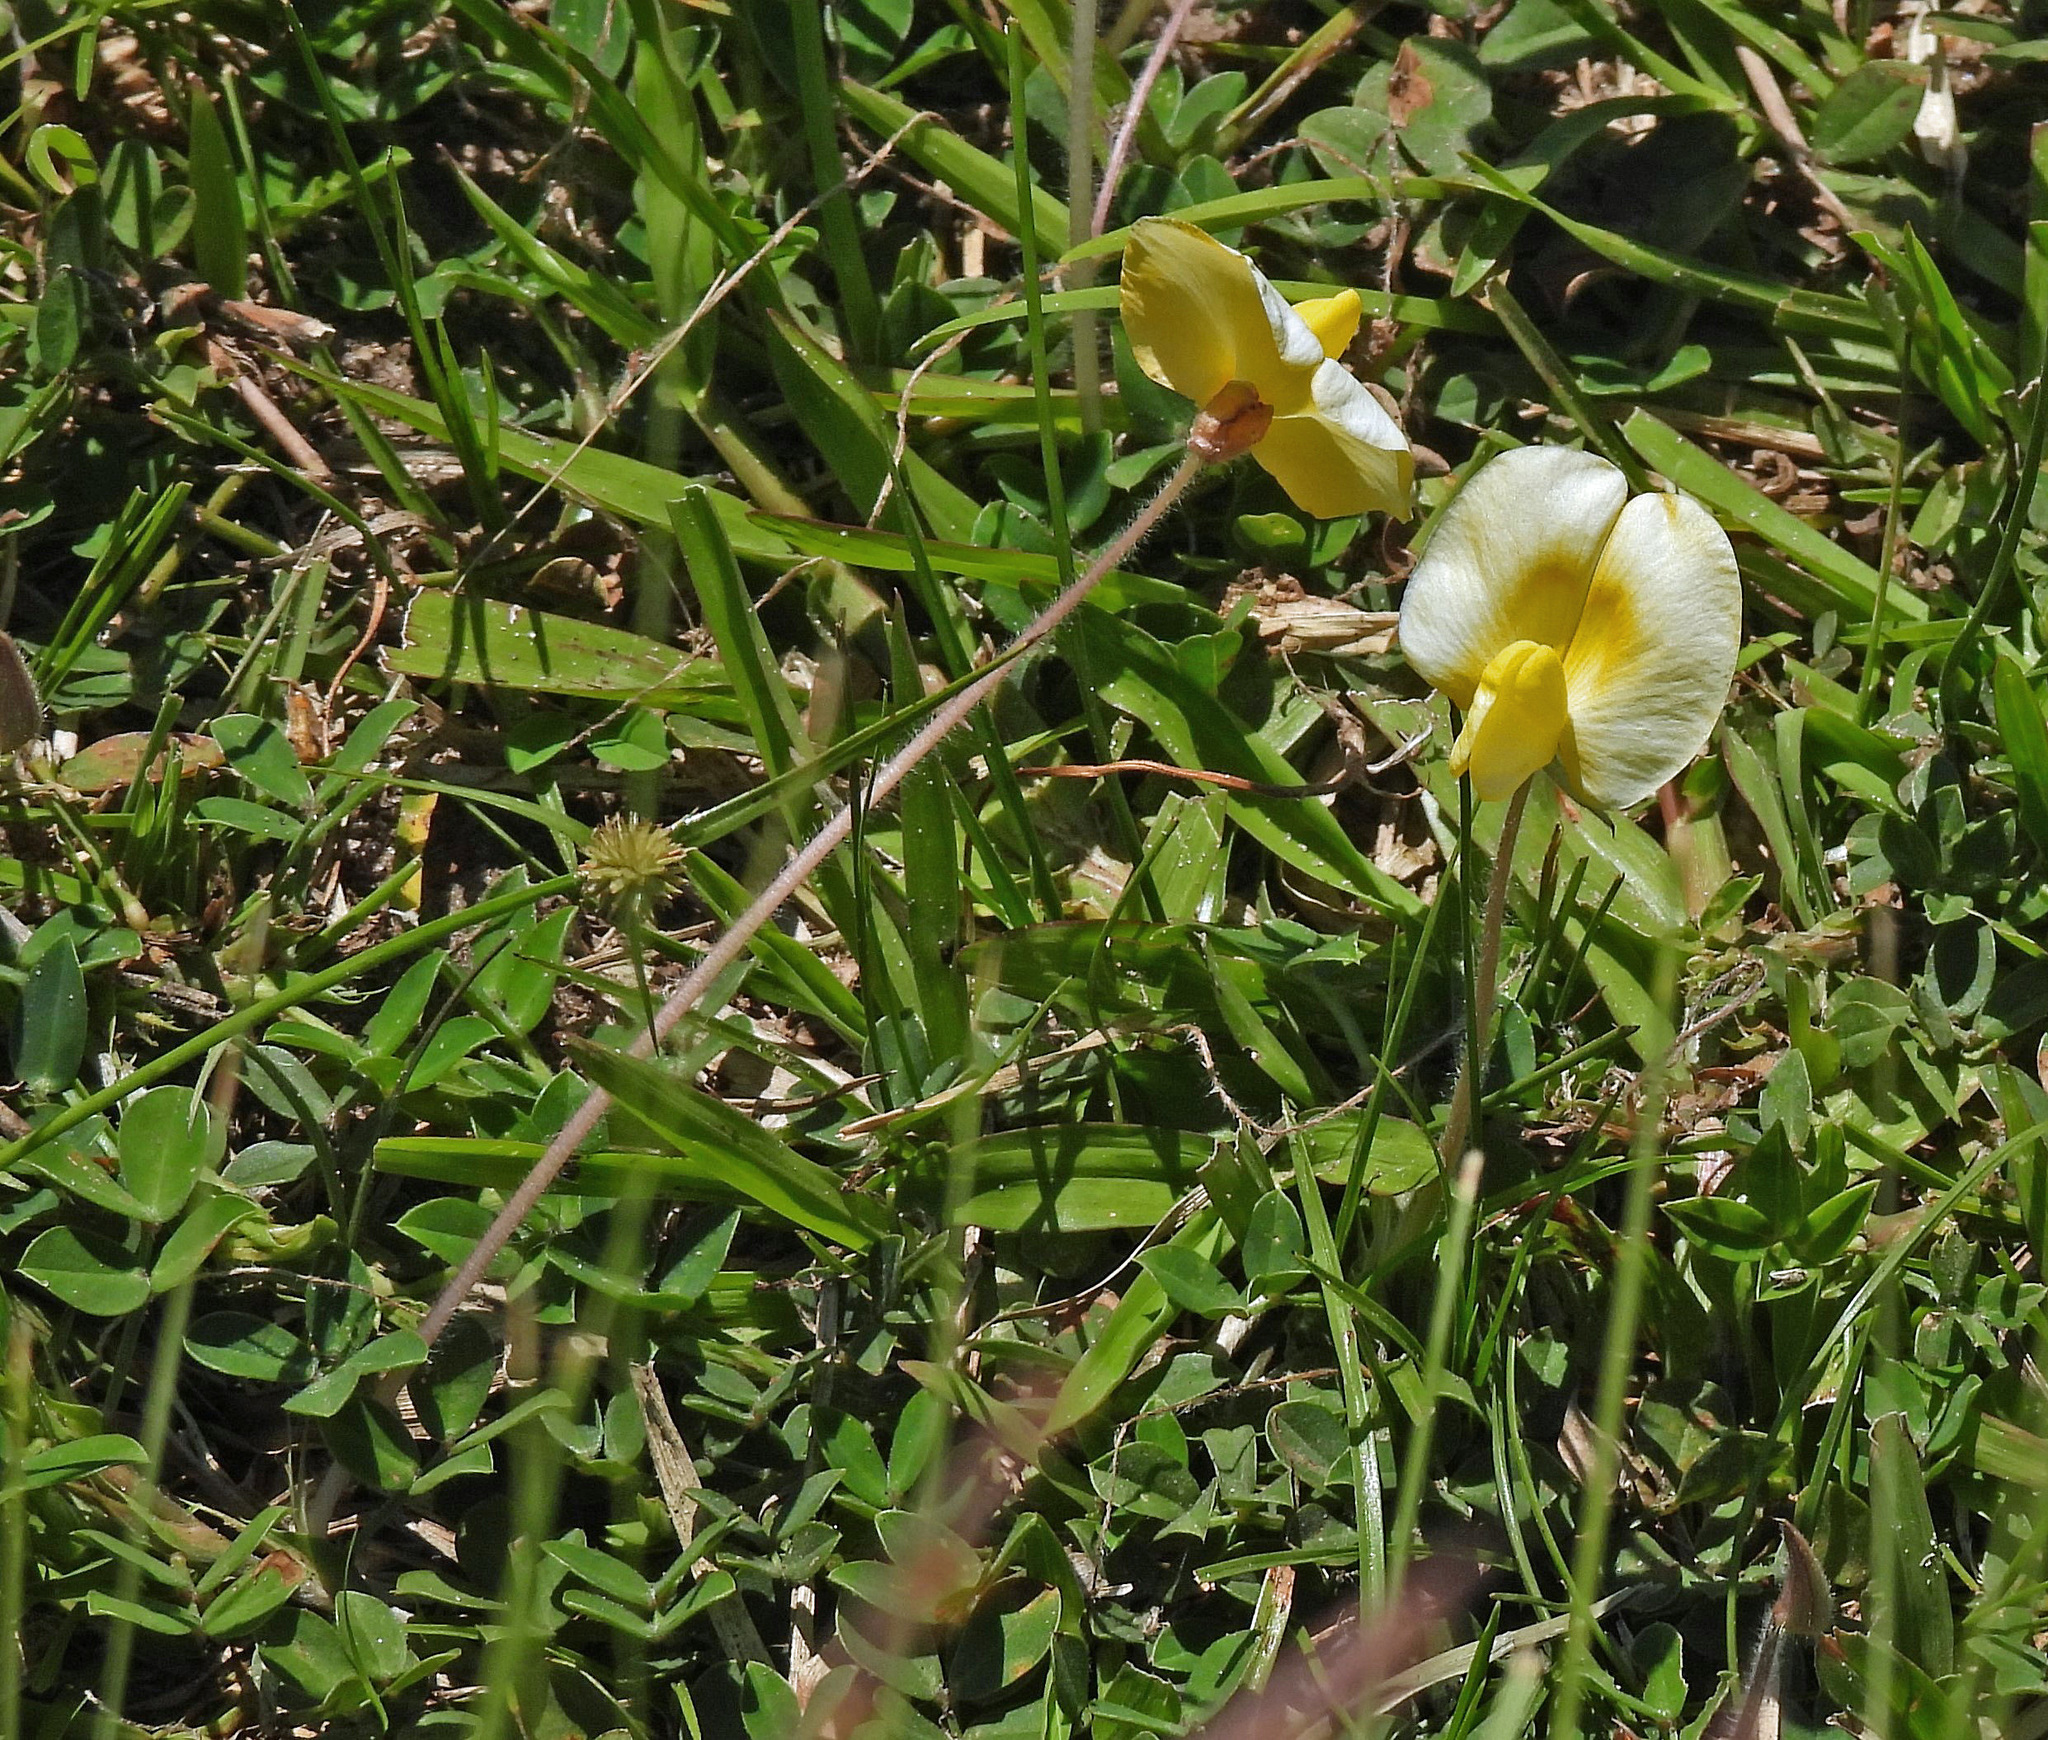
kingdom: Plantae
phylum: Tracheophyta
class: Magnoliopsida
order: Fabales
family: Fabaceae
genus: Arachis
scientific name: Arachis burkartii
